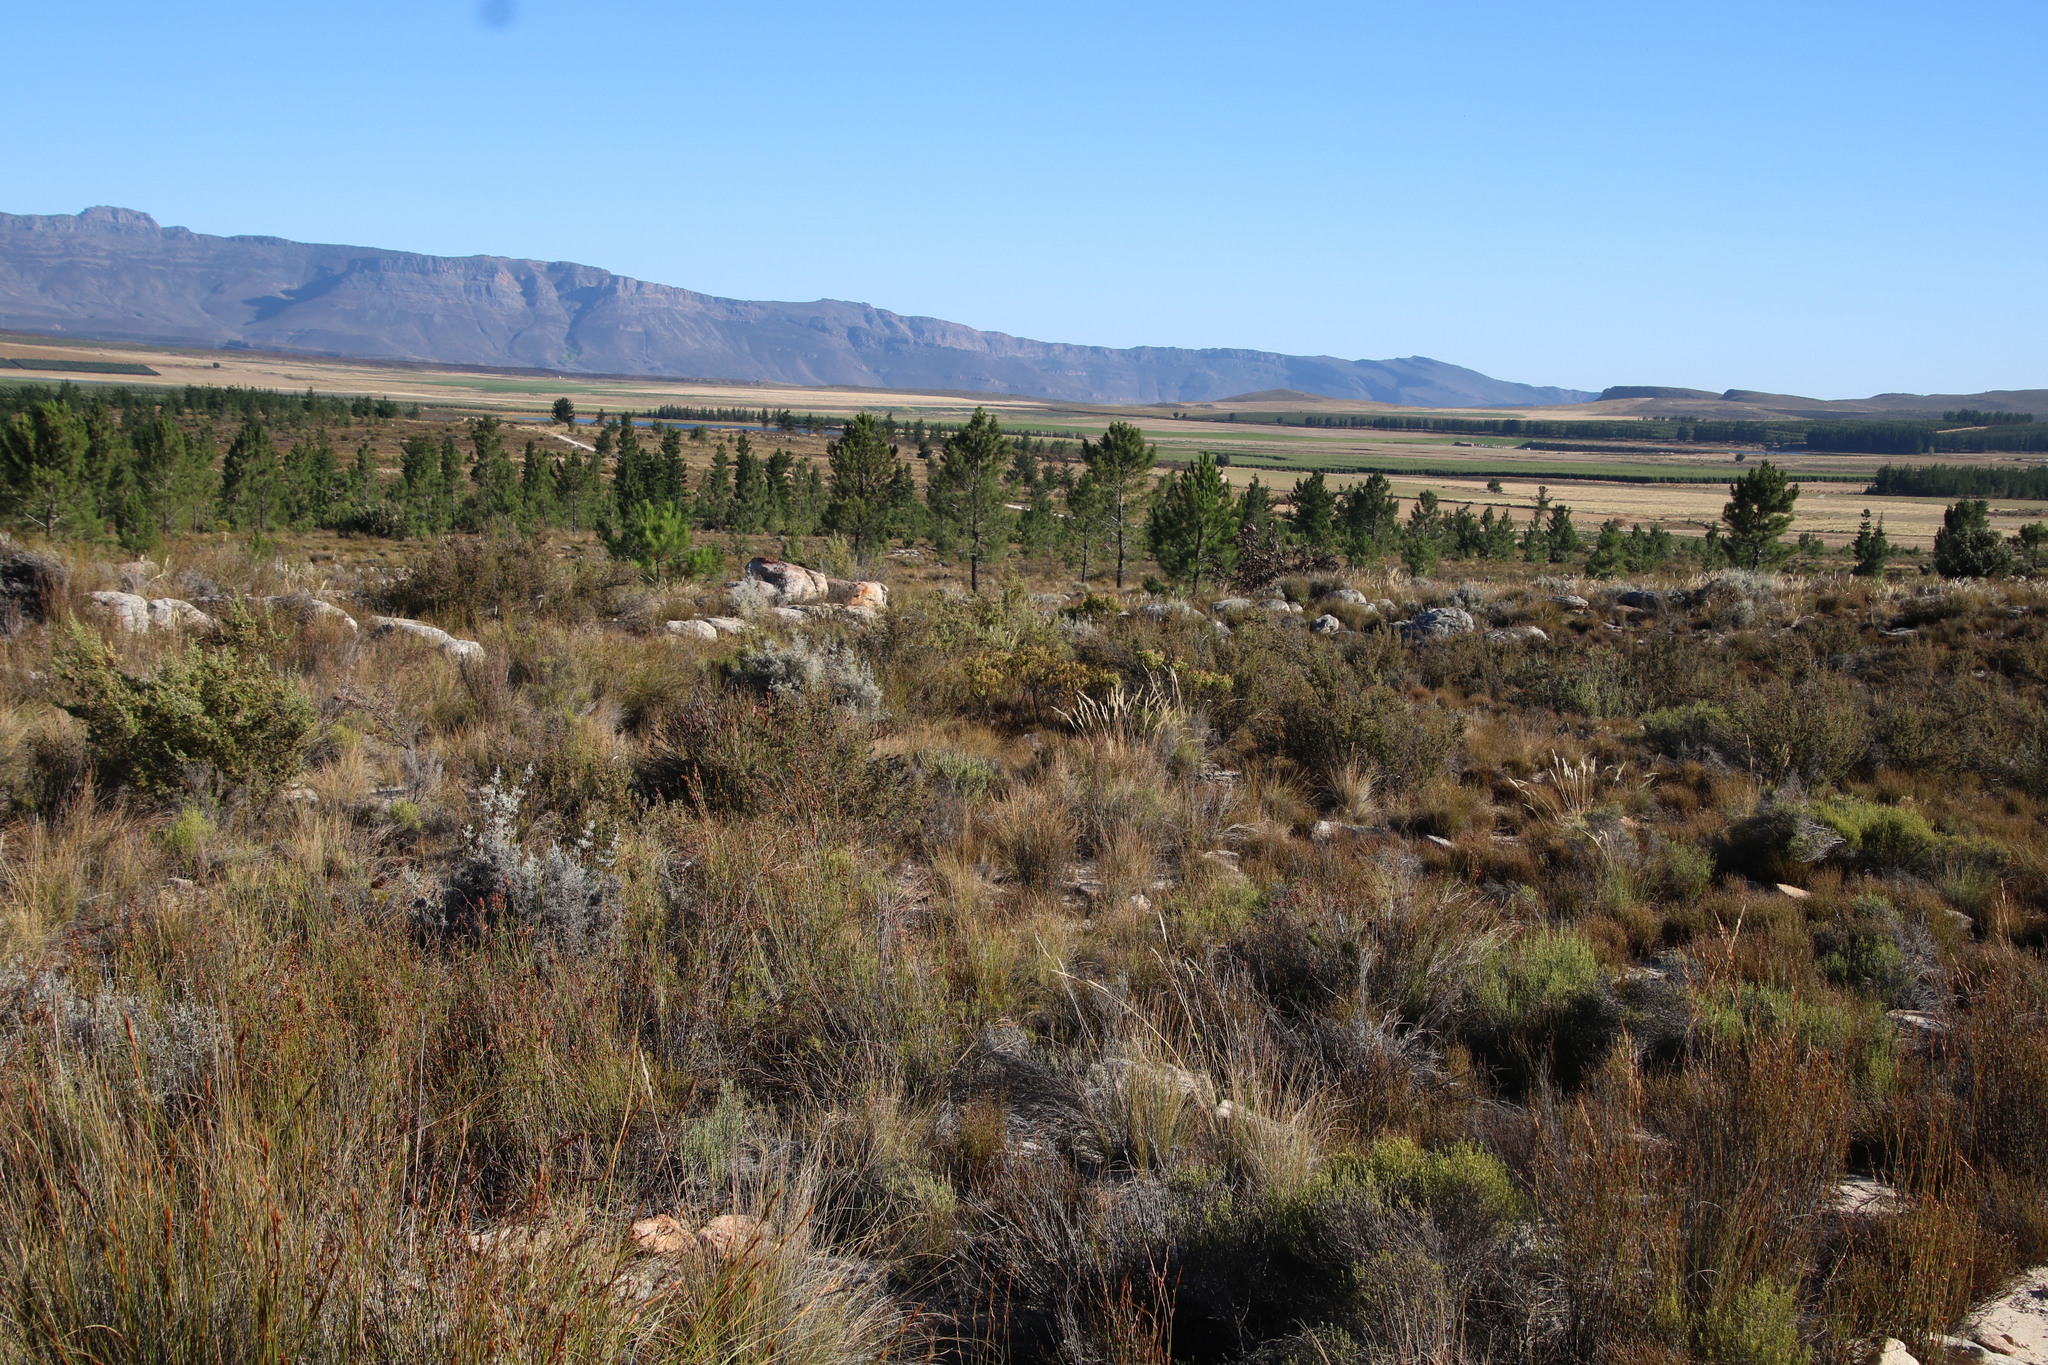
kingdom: Plantae
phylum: Tracheophyta
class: Pinopsida
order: Pinales
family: Pinaceae
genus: Pinus
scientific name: Pinus pinaster
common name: Maritime pine
